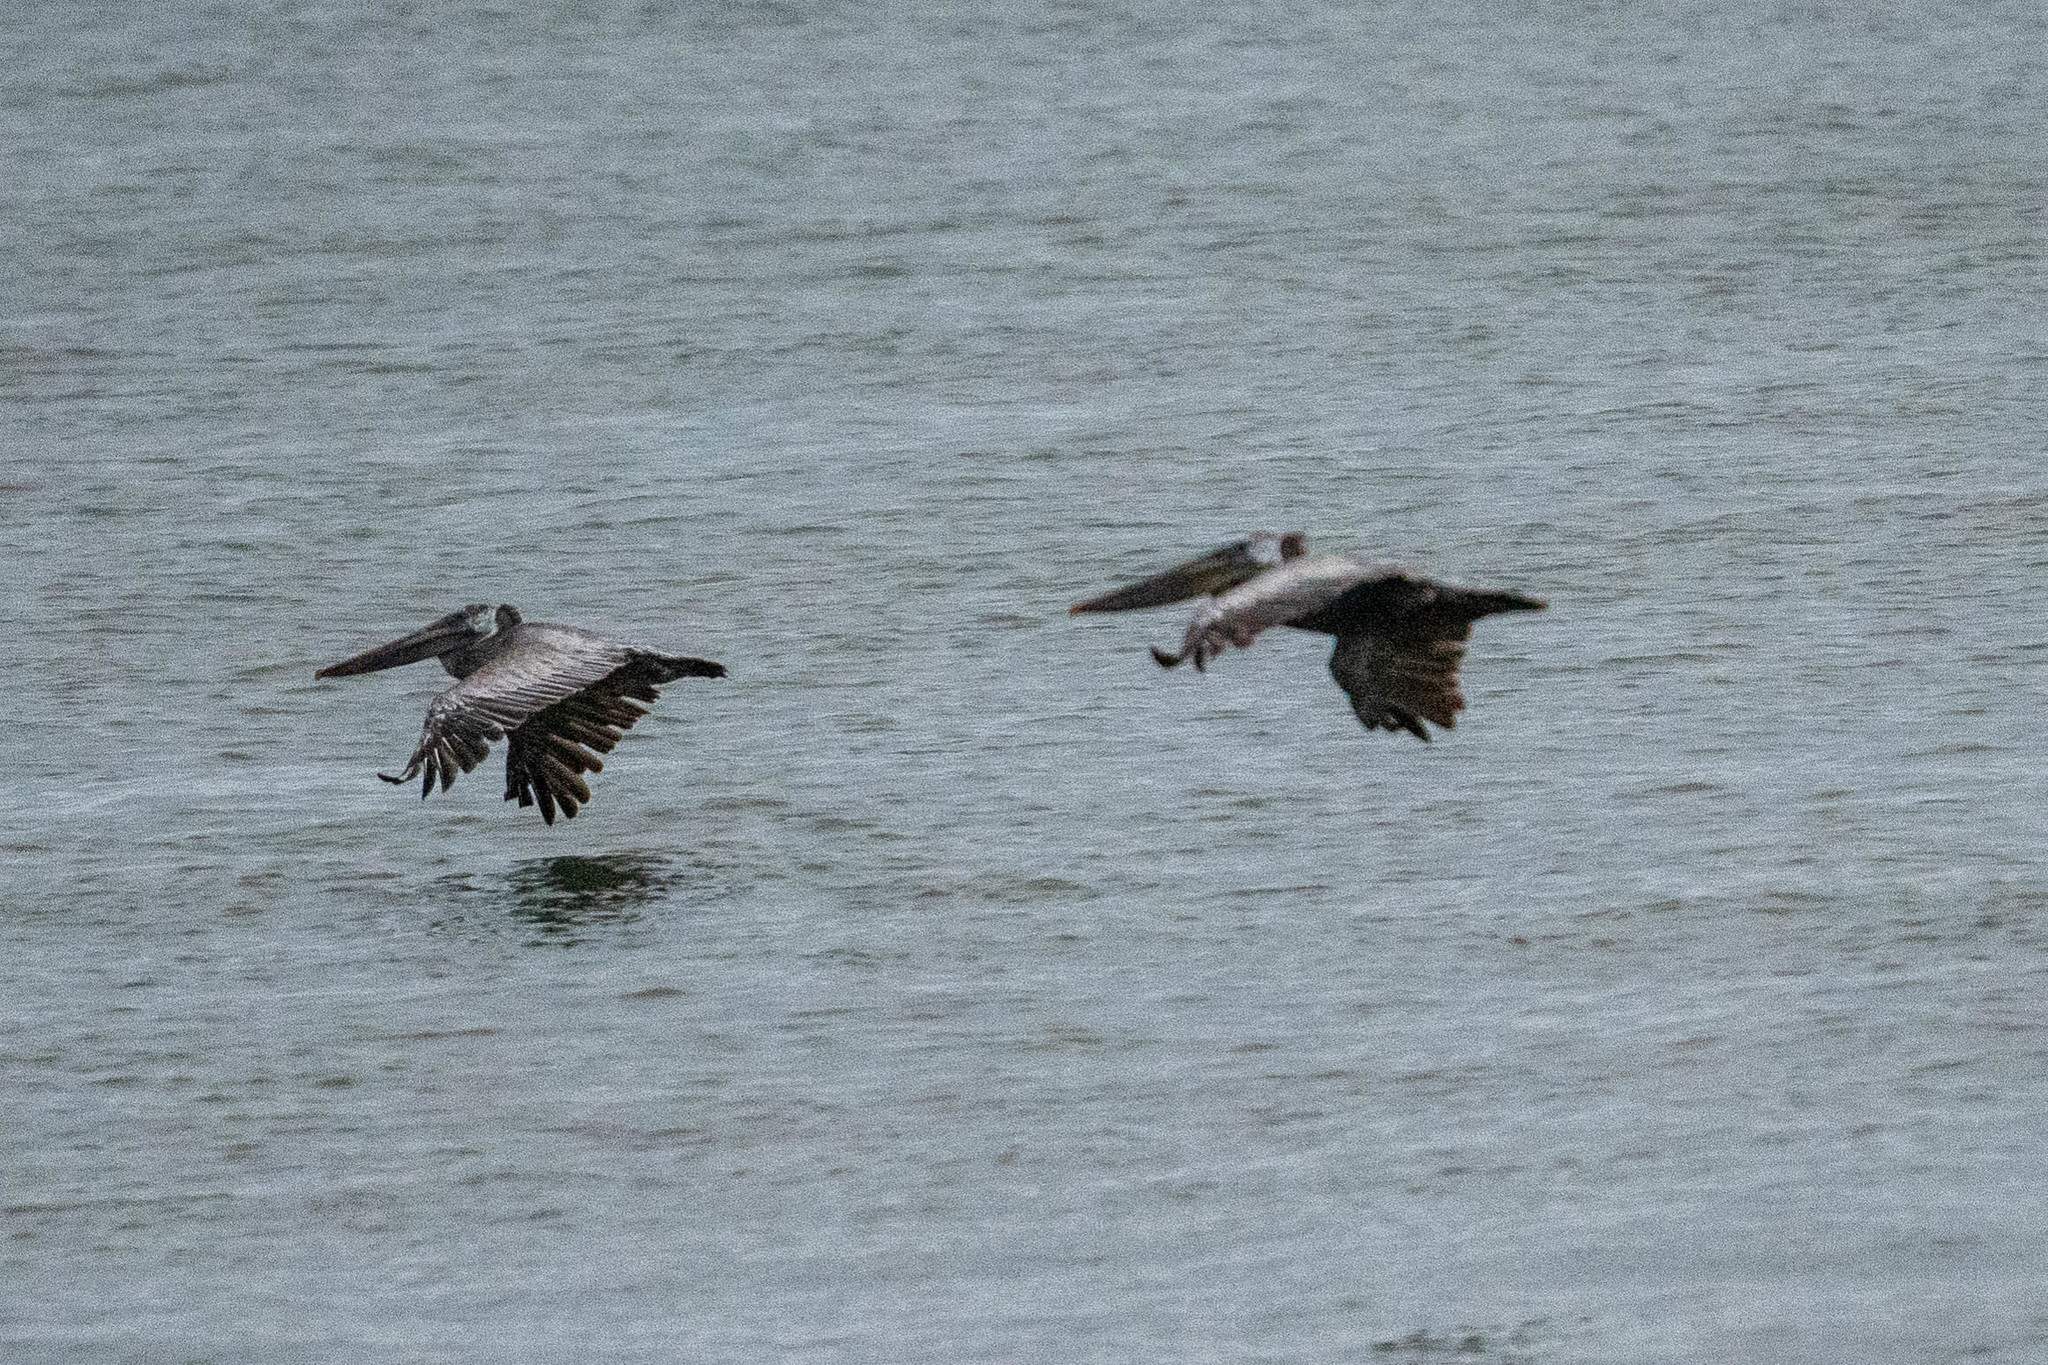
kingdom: Animalia
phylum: Chordata
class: Aves
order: Pelecaniformes
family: Pelecanidae
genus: Pelecanus
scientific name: Pelecanus occidentalis
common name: Brown pelican
